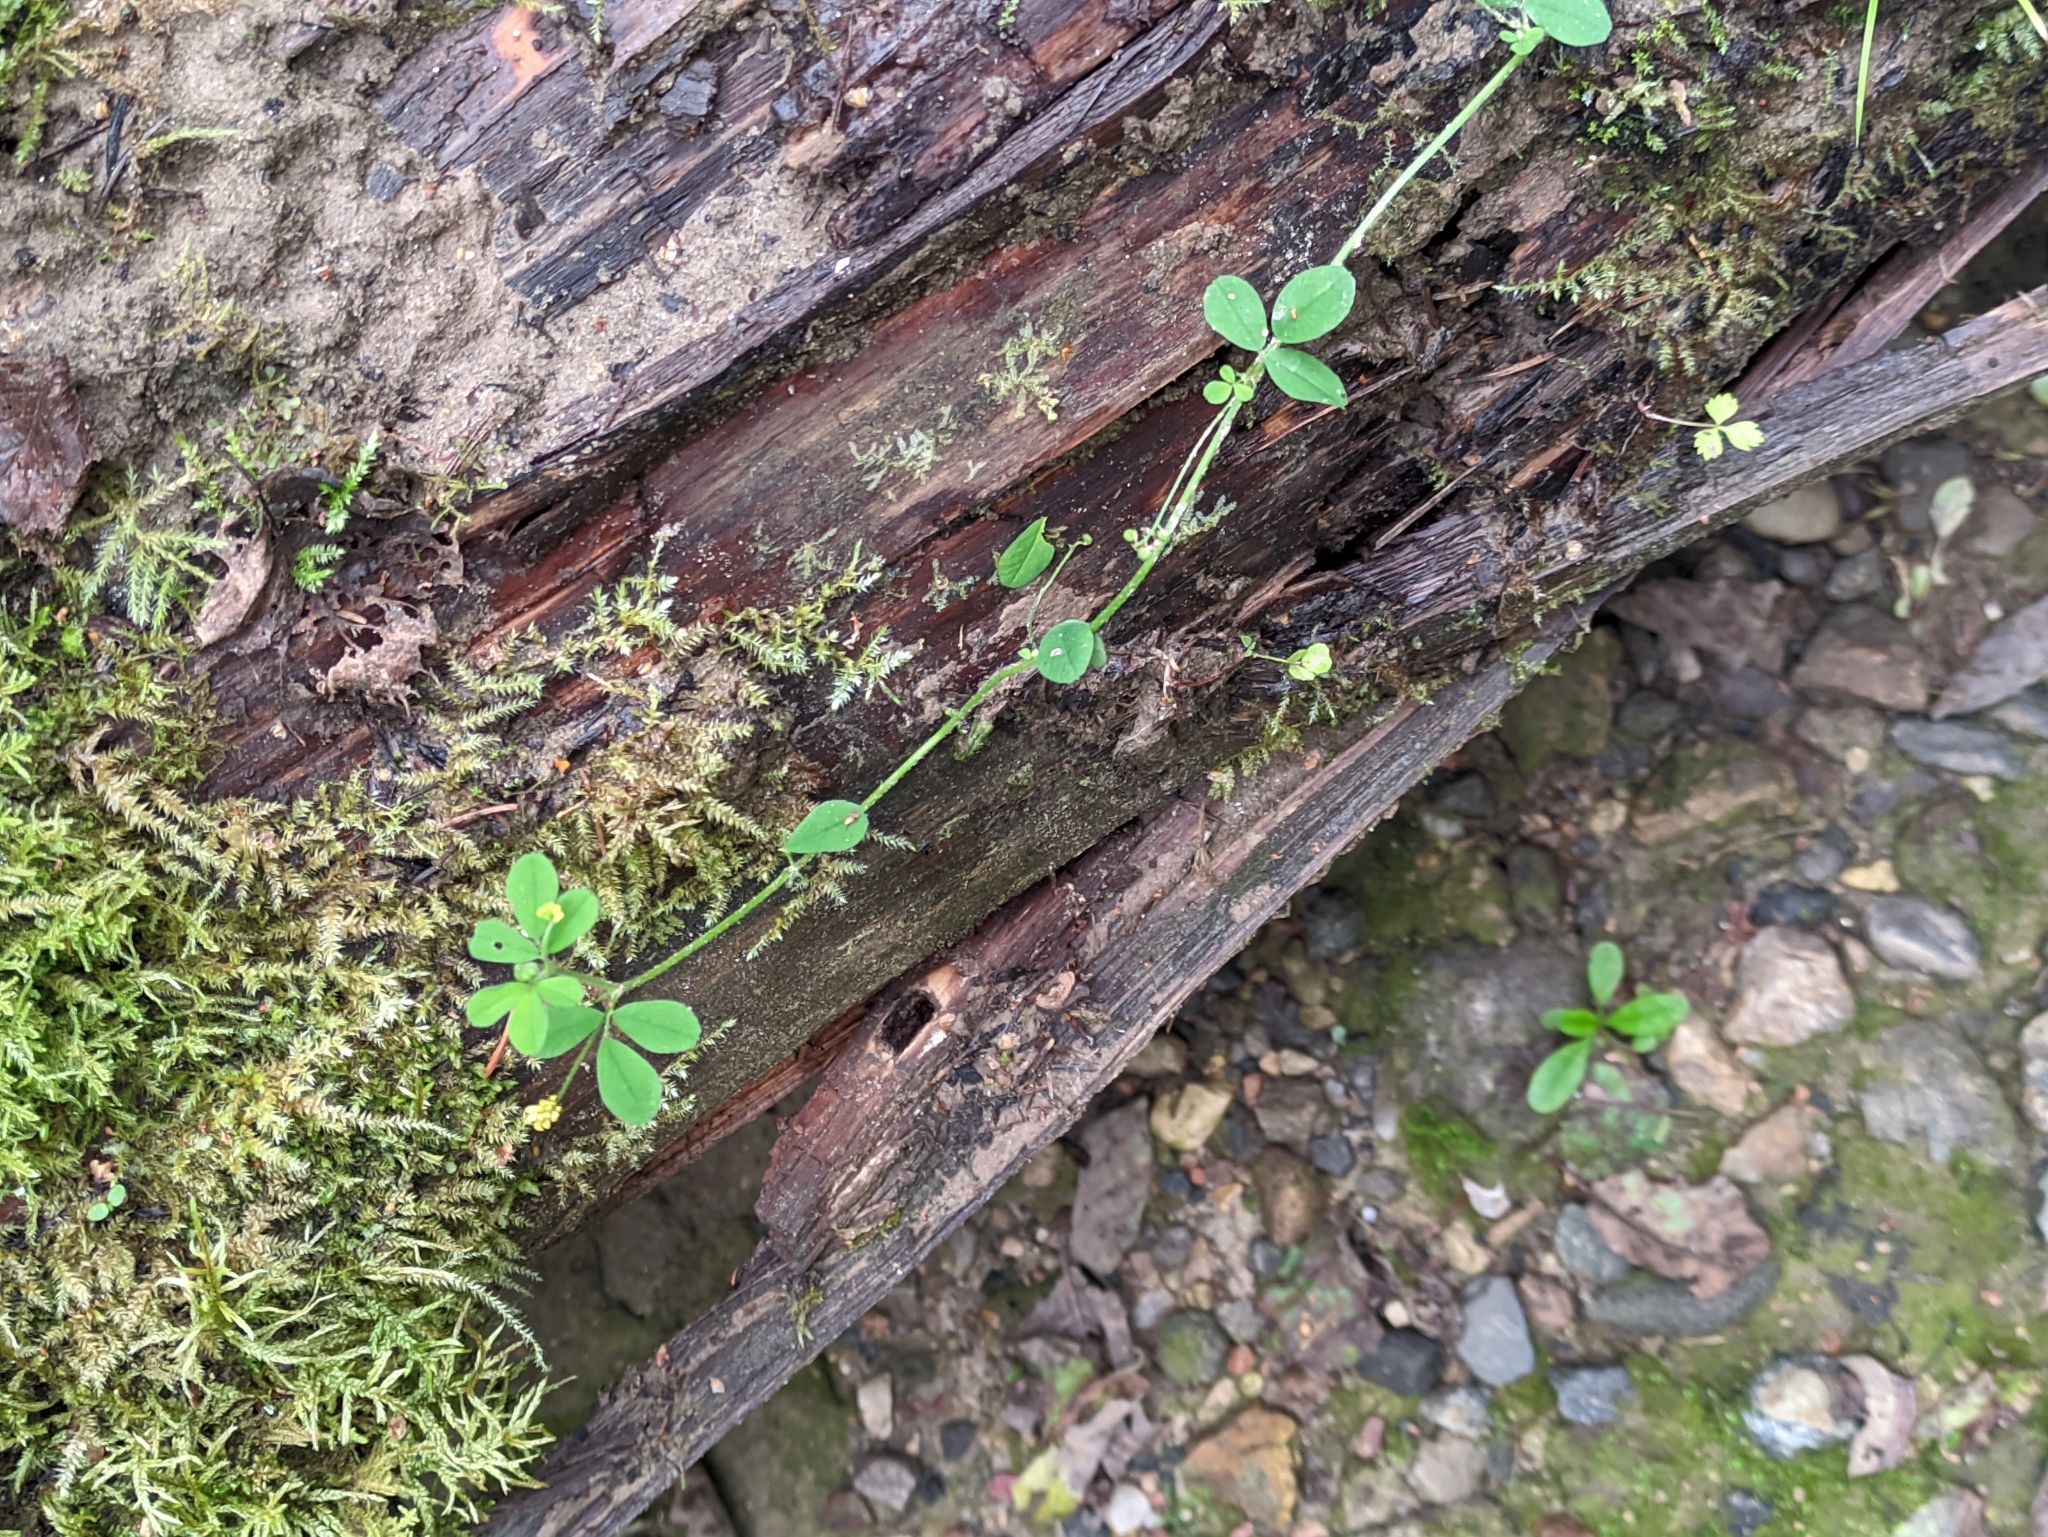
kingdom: Plantae
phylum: Tracheophyta
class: Magnoliopsida
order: Fabales
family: Fabaceae
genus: Medicago
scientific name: Medicago lupulina
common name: Black medick
